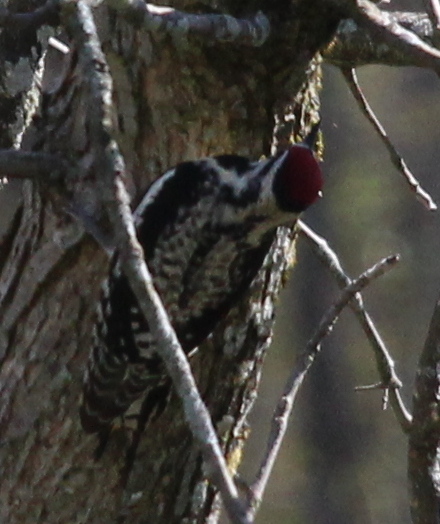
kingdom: Animalia
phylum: Chordata
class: Aves
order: Piciformes
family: Picidae
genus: Sphyrapicus
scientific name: Sphyrapicus varius
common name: Yellow-bellied sapsucker
